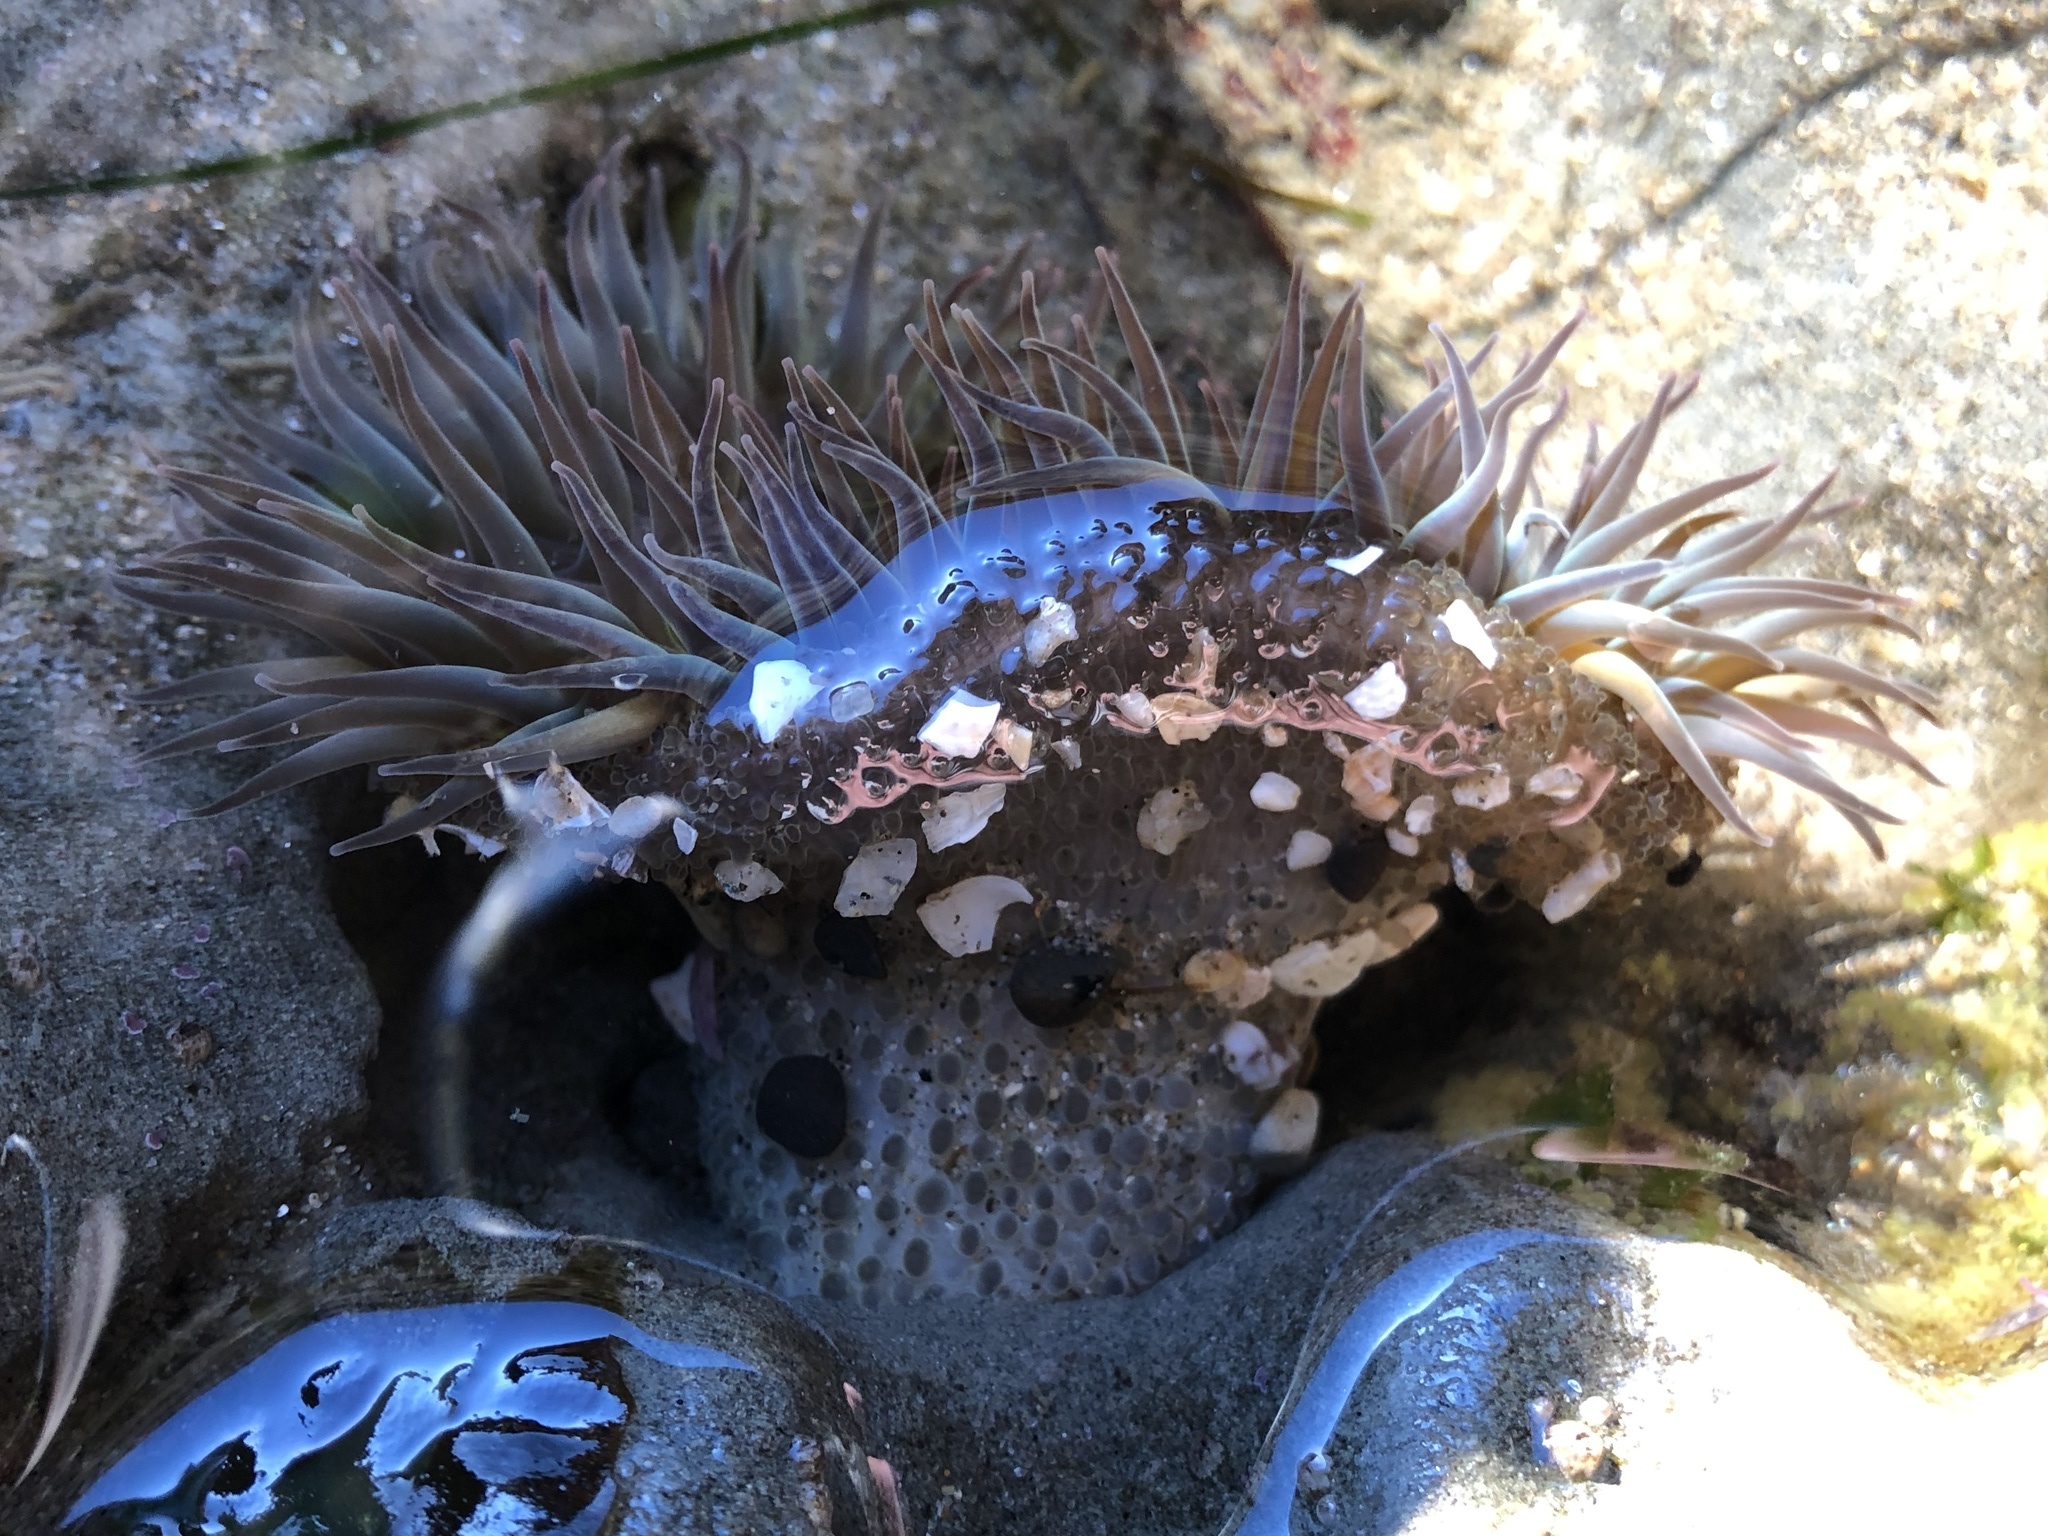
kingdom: Animalia
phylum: Cnidaria
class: Anthozoa
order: Actiniaria
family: Actiniidae
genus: Anthopleura
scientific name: Anthopleura sola
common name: Sun anemone
